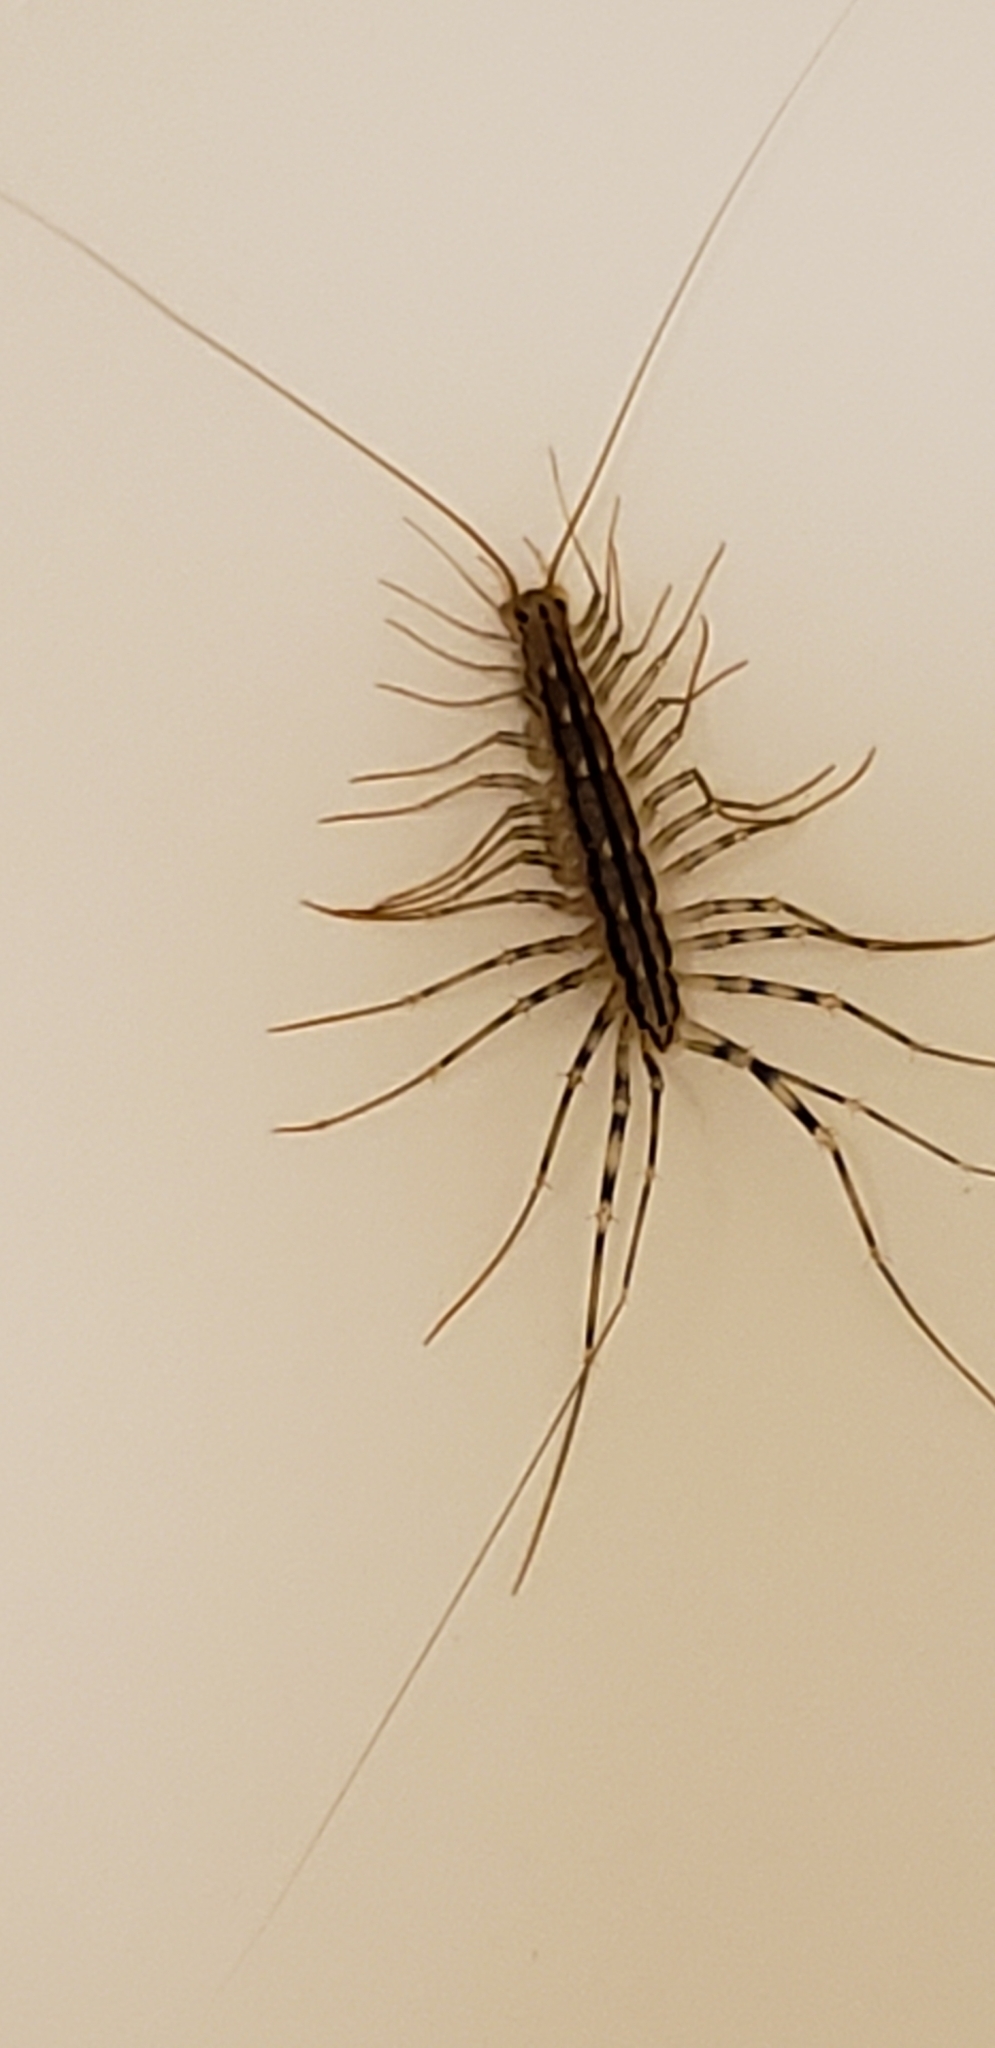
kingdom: Animalia
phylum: Arthropoda
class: Chilopoda
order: Scutigeromorpha
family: Scutigeridae
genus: Scutigera
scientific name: Scutigera coleoptrata
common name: House centipede
